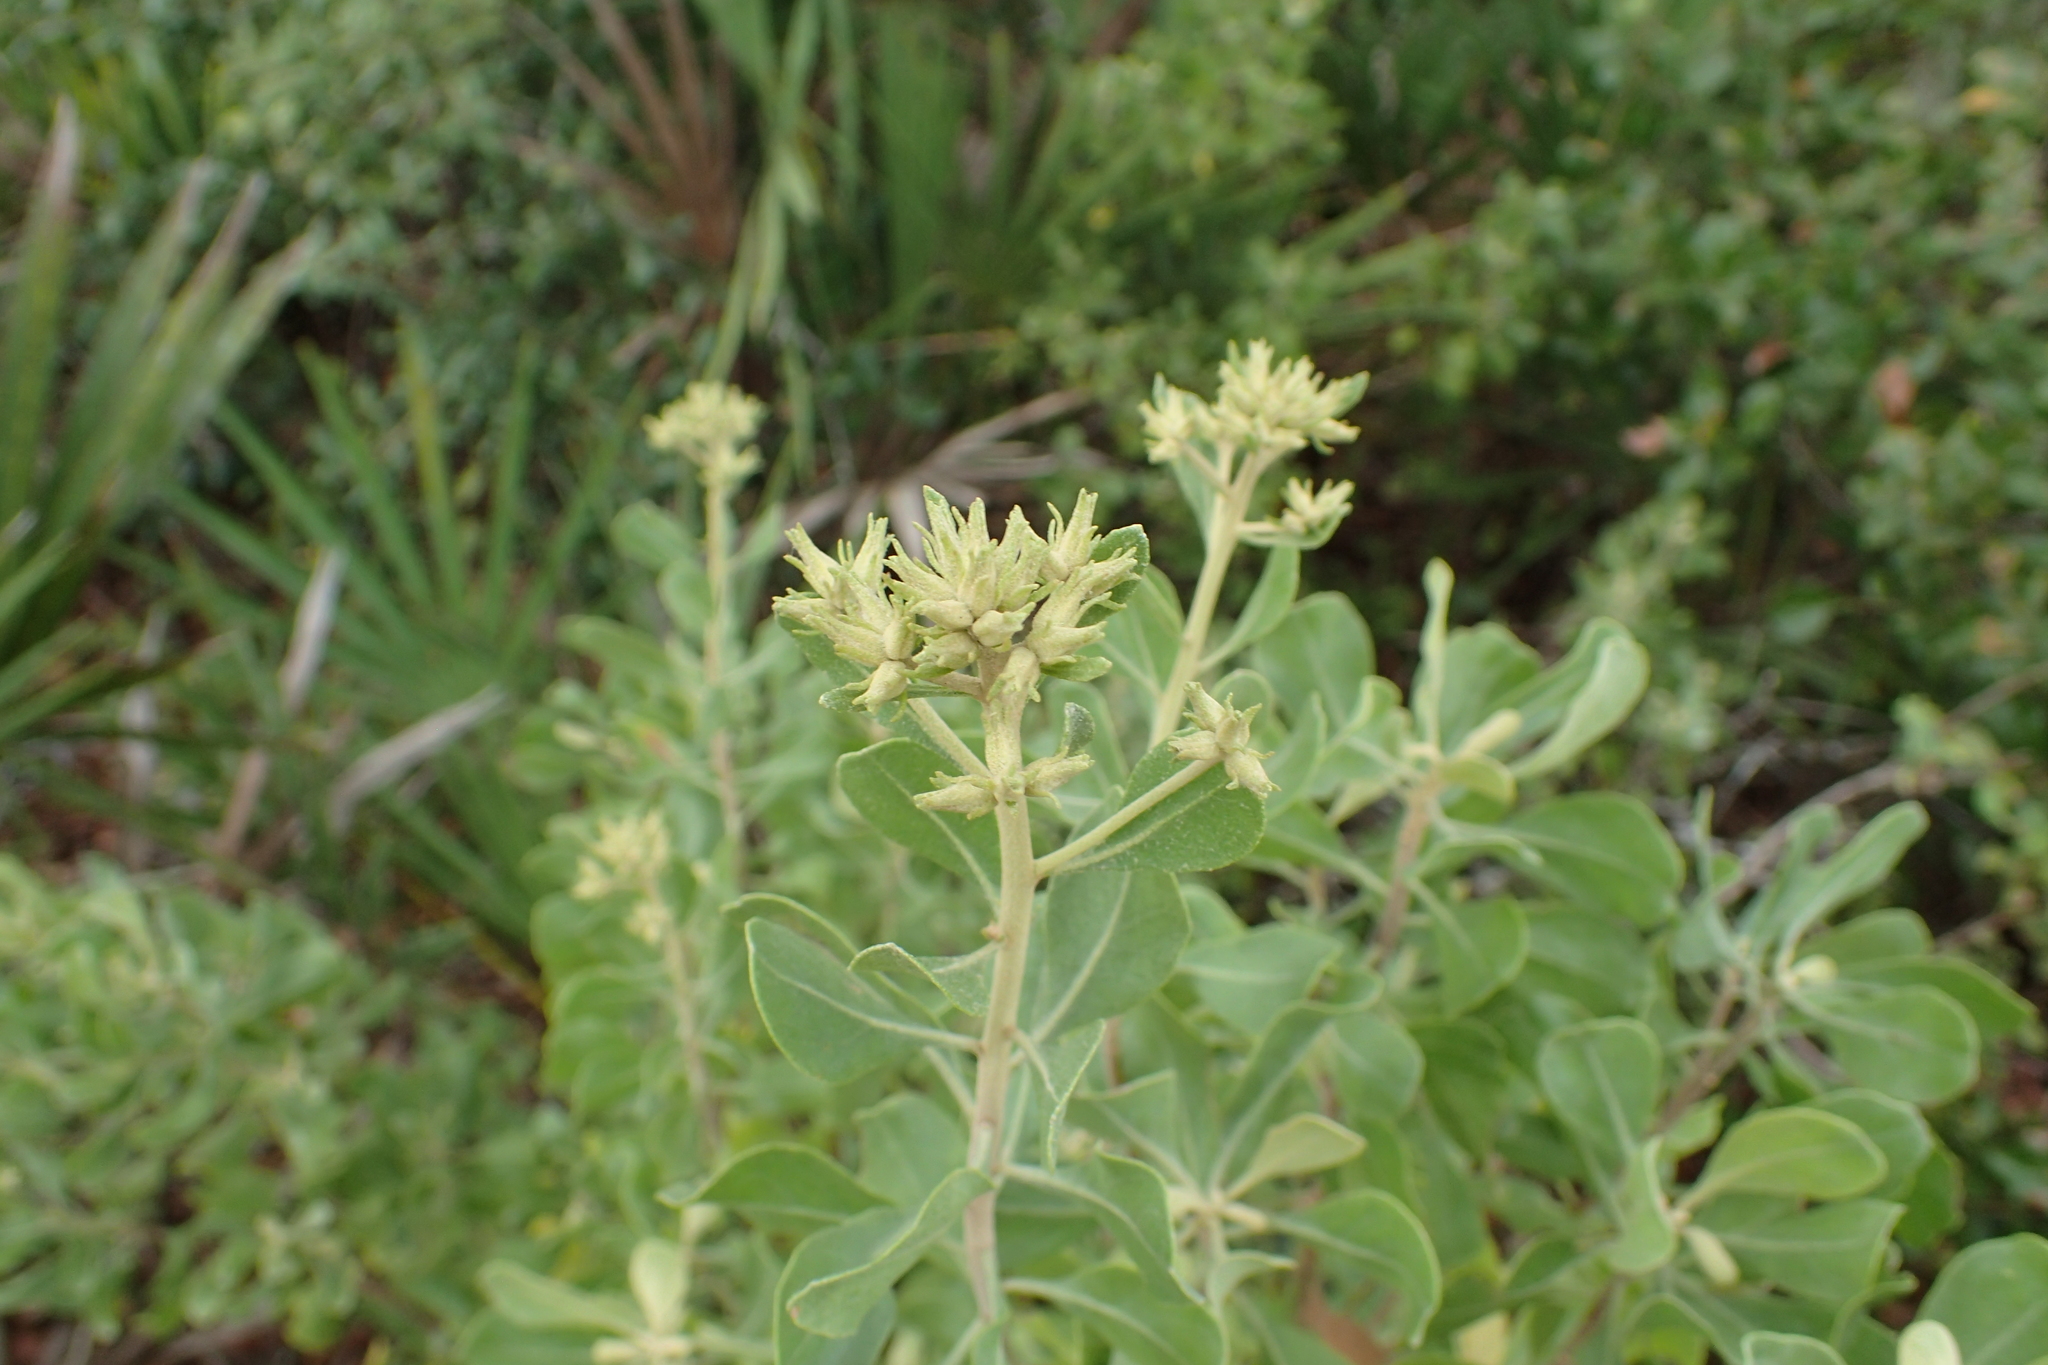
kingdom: Plantae
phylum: Tracheophyta
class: Magnoliopsida
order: Asterales
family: Asteraceae
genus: Garberia
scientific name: Garberia heterophylla
